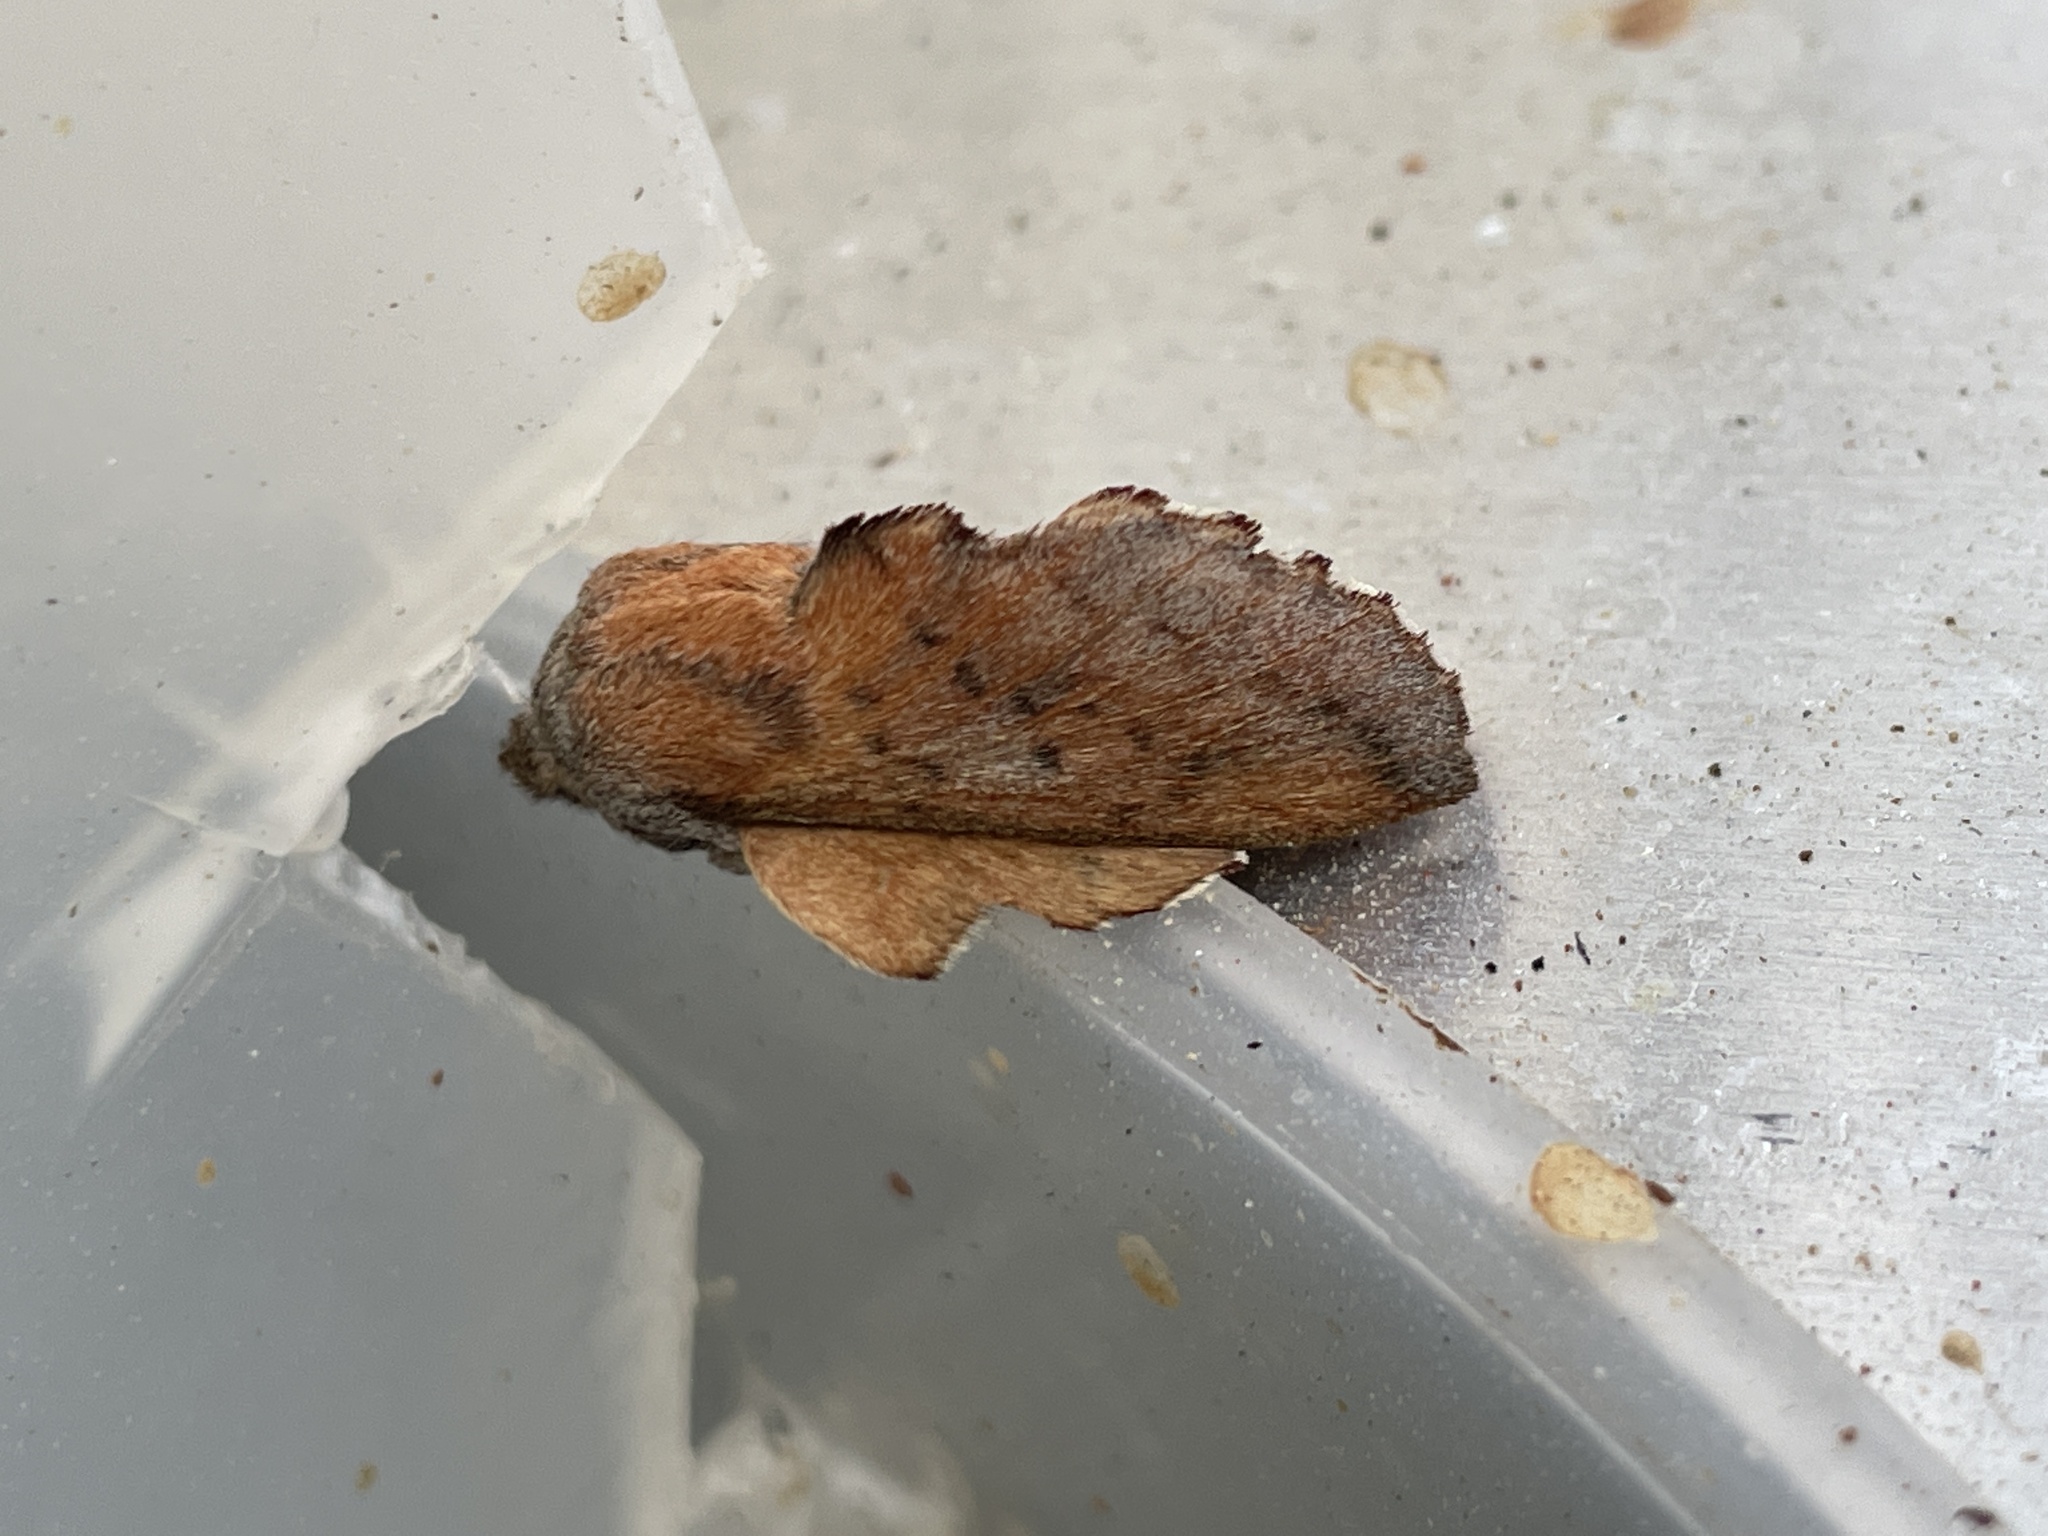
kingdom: Animalia
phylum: Arthropoda
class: Insecta
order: Lepidoptera
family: Lasiocampidae
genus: Phyllodesma
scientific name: Phyllodesma tremulifolia
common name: Aspen lappet
